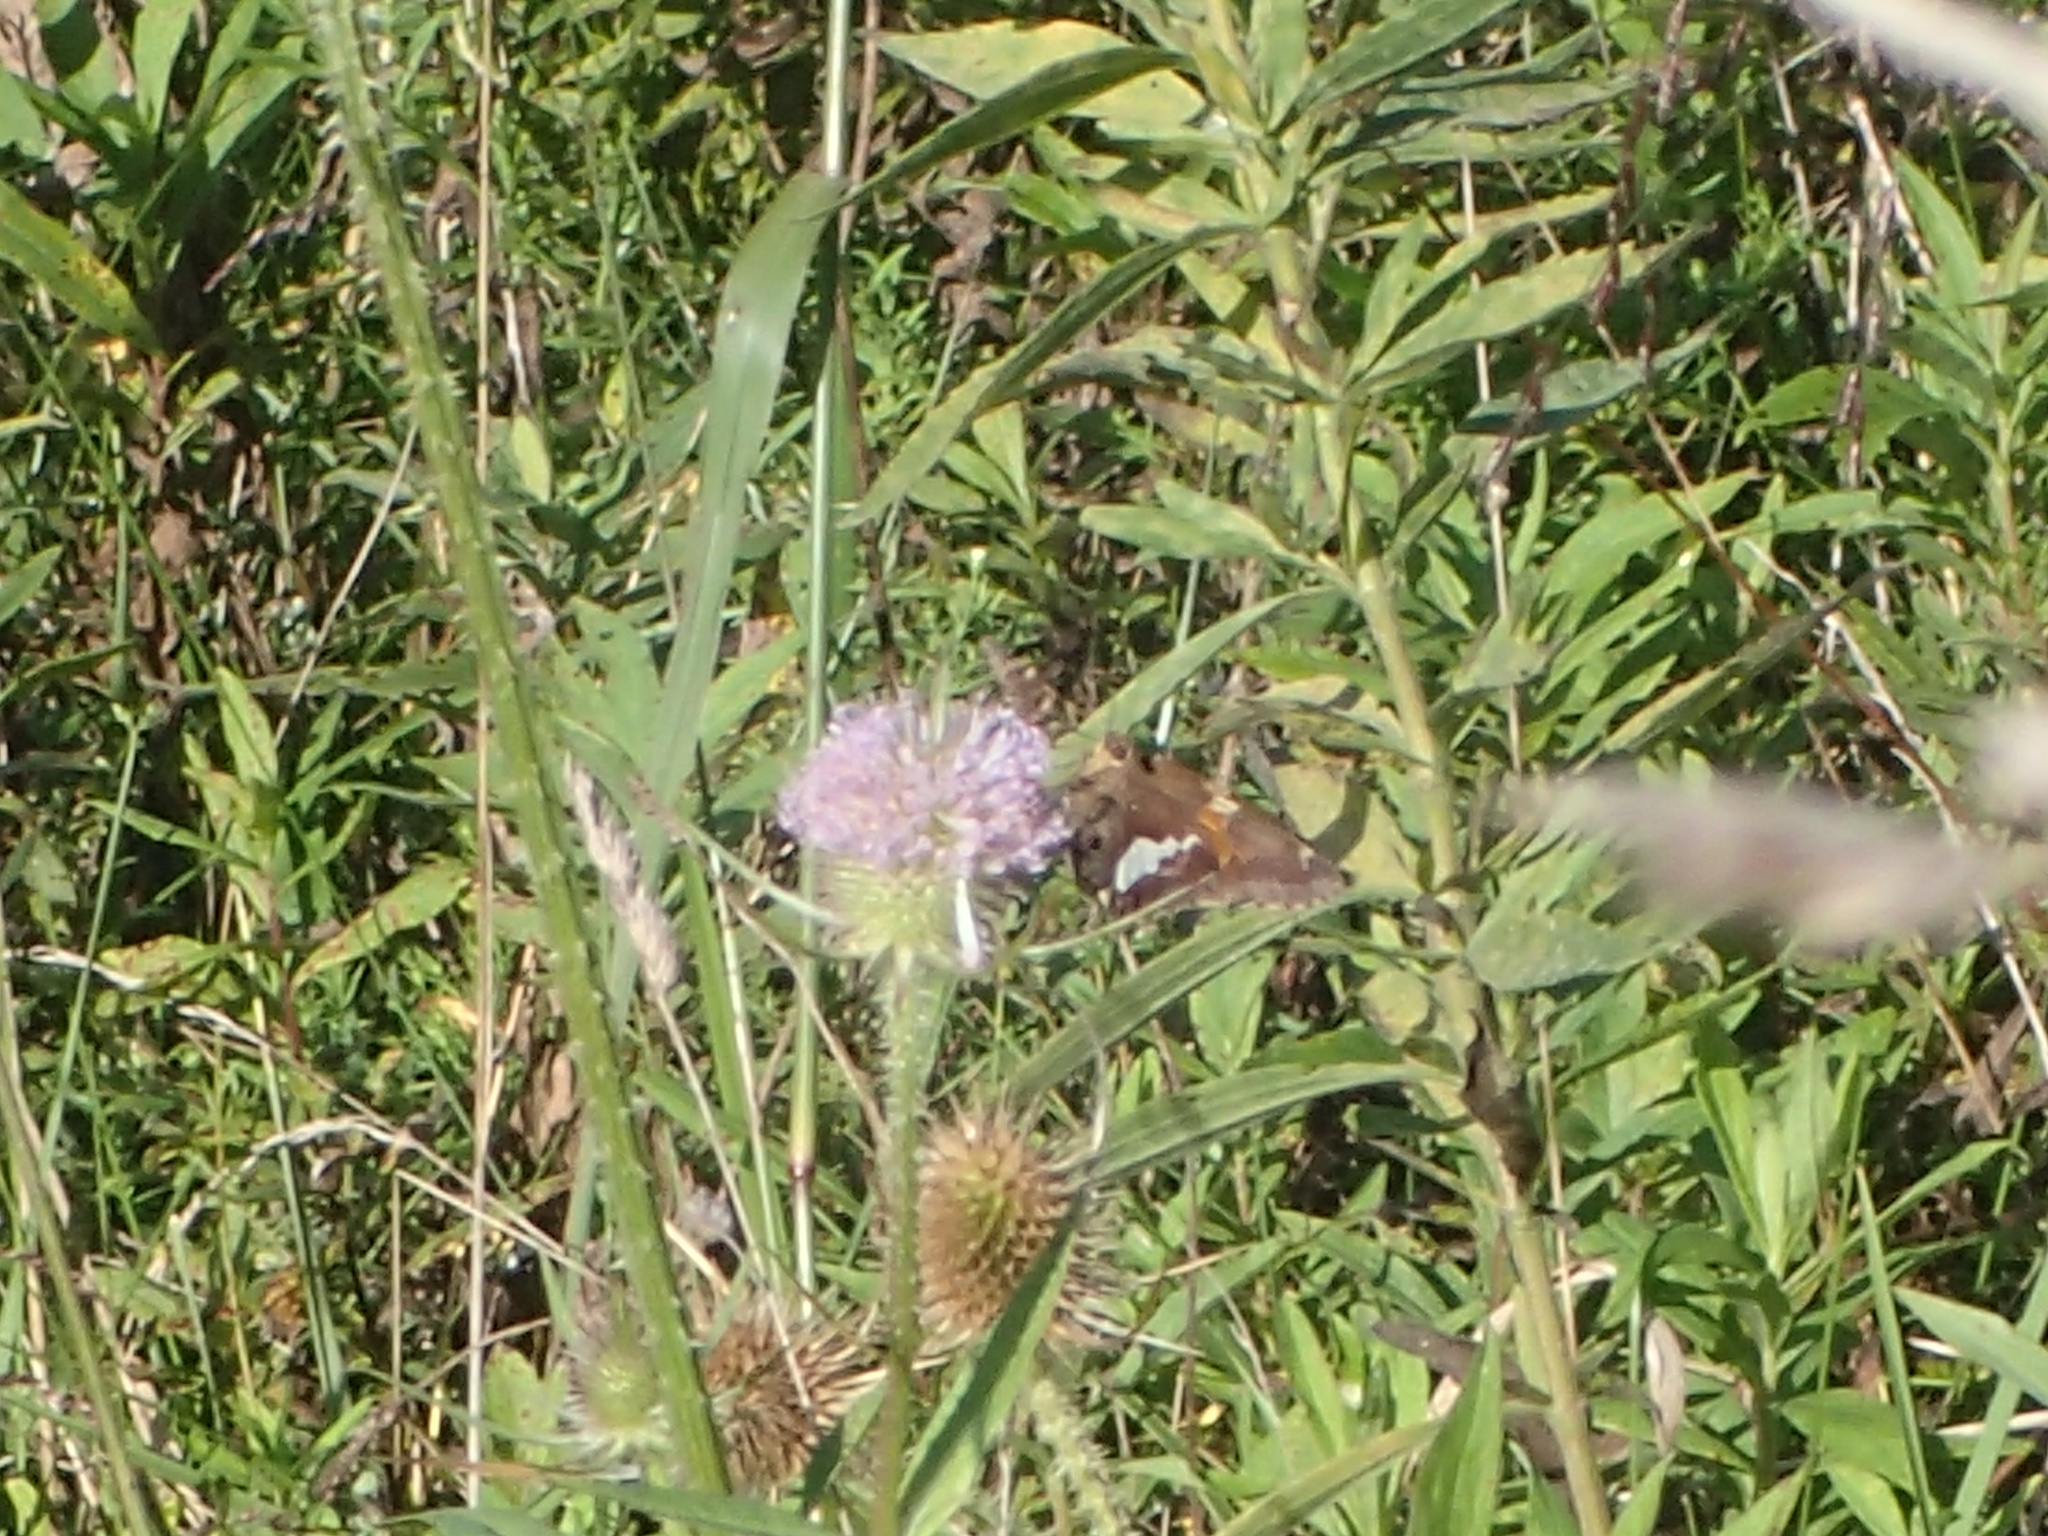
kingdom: Animalia
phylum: Arthropoda
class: Insecta
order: Lepidoptera
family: Hesperiidae
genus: Epargyreus
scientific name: Epargyreus clarus
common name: Silver-spotted skipper
